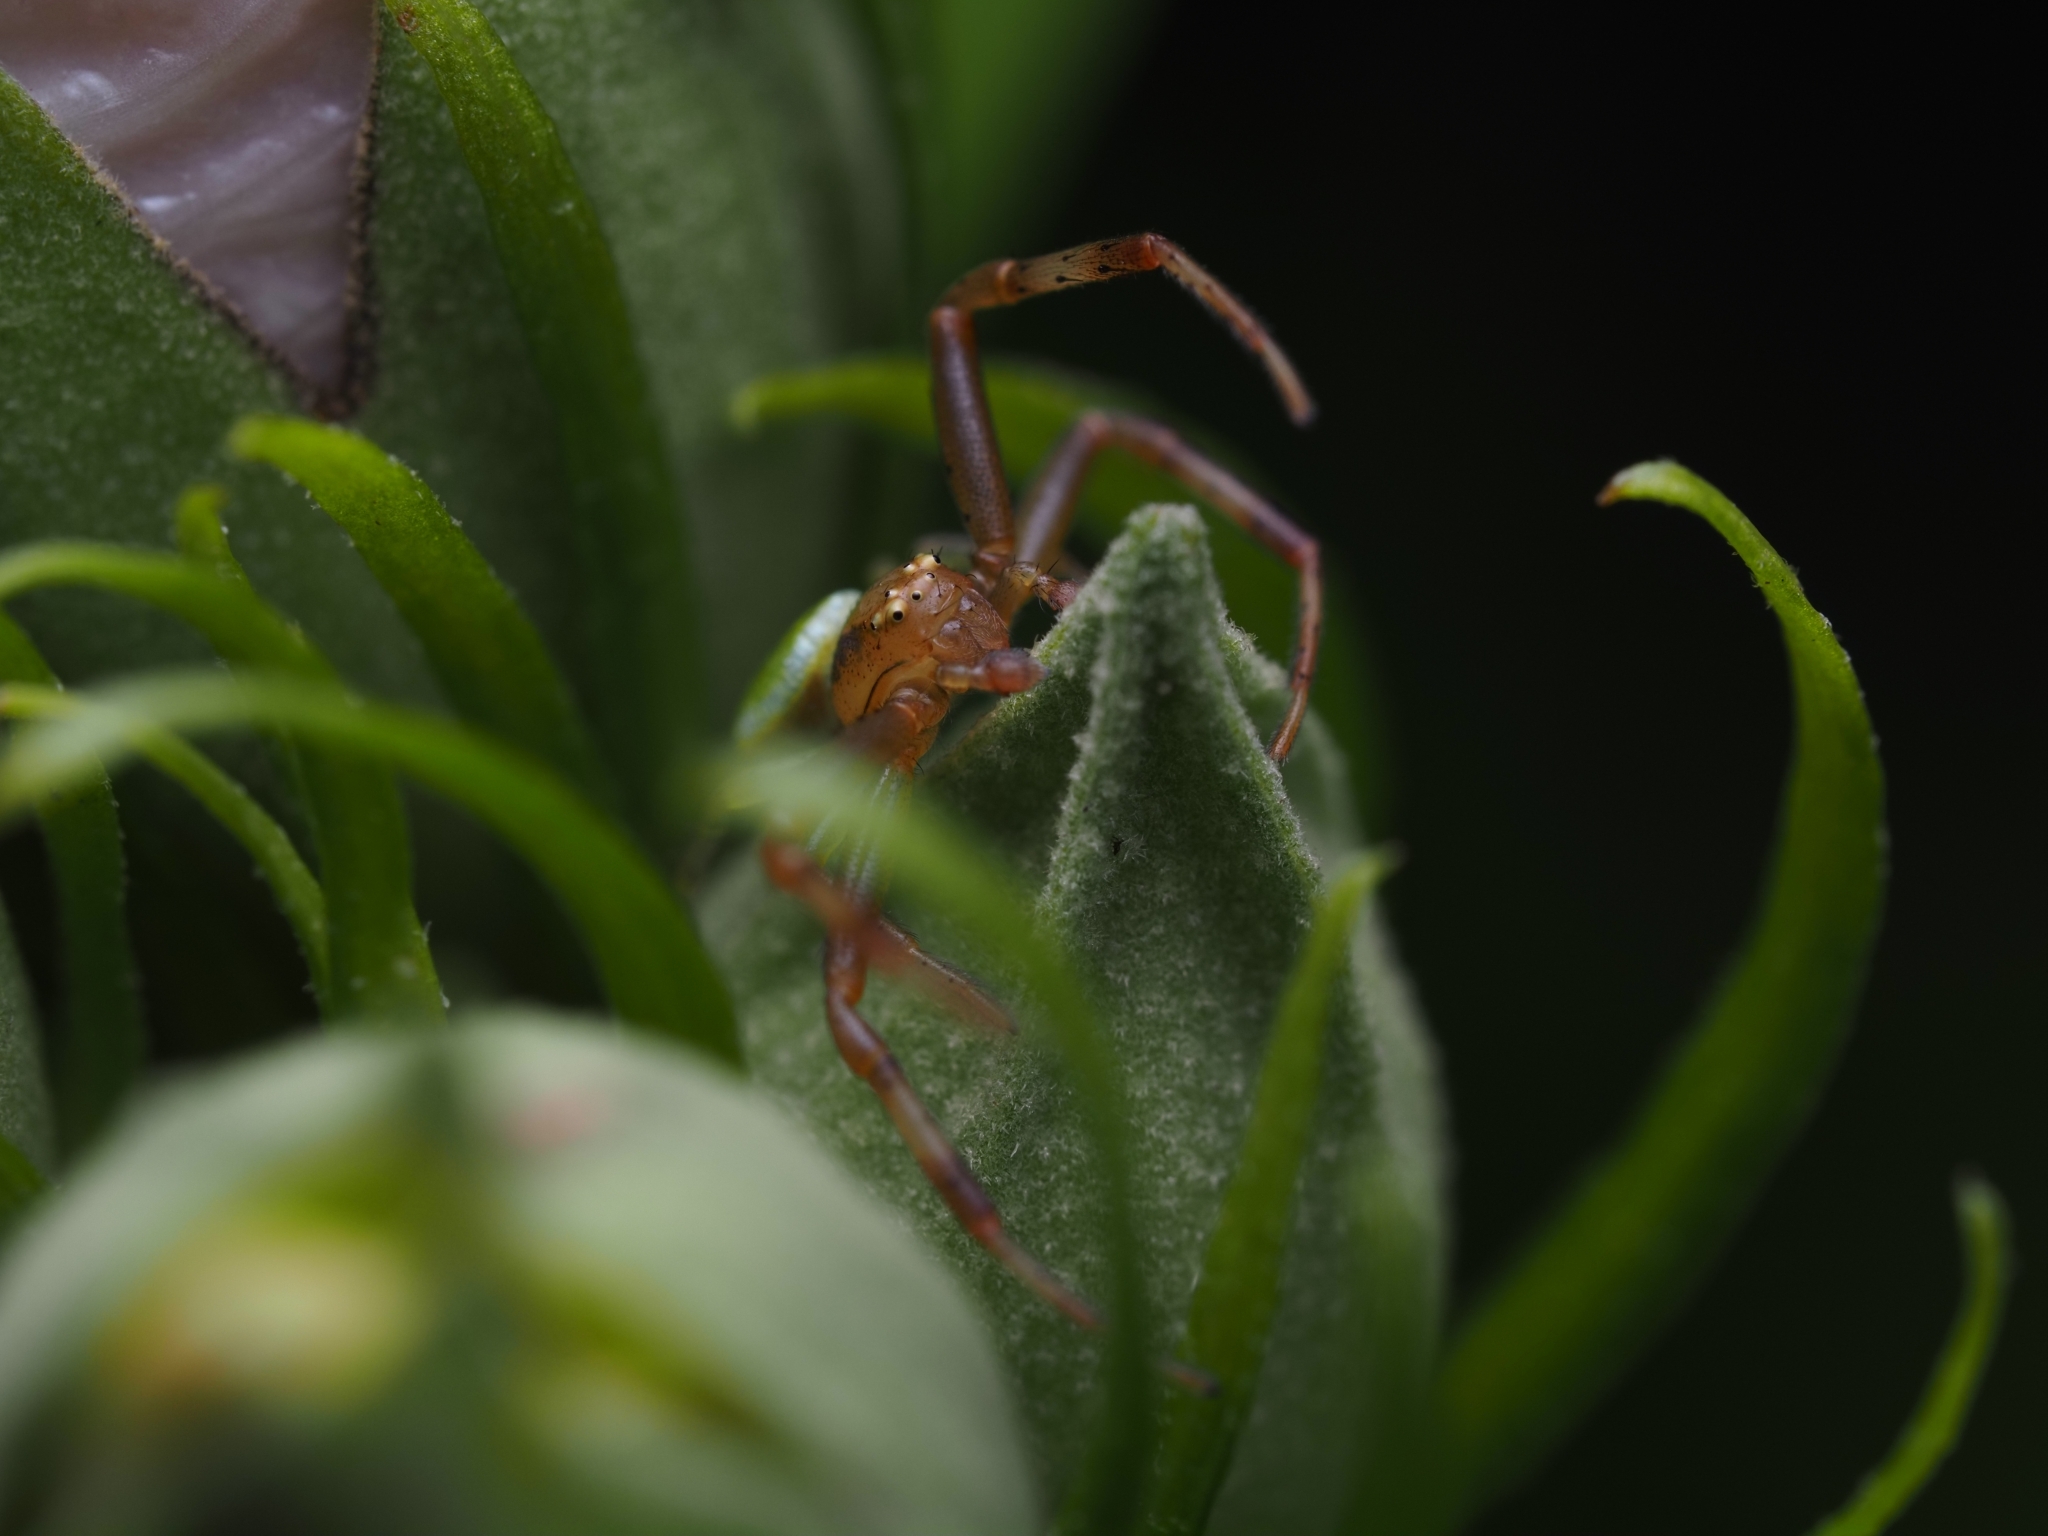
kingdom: Animalia
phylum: Arthropoda
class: Arachnida
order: Araneae
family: Thomisidae
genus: Ebrechtella
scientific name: Ebrechtella tricuspidata
